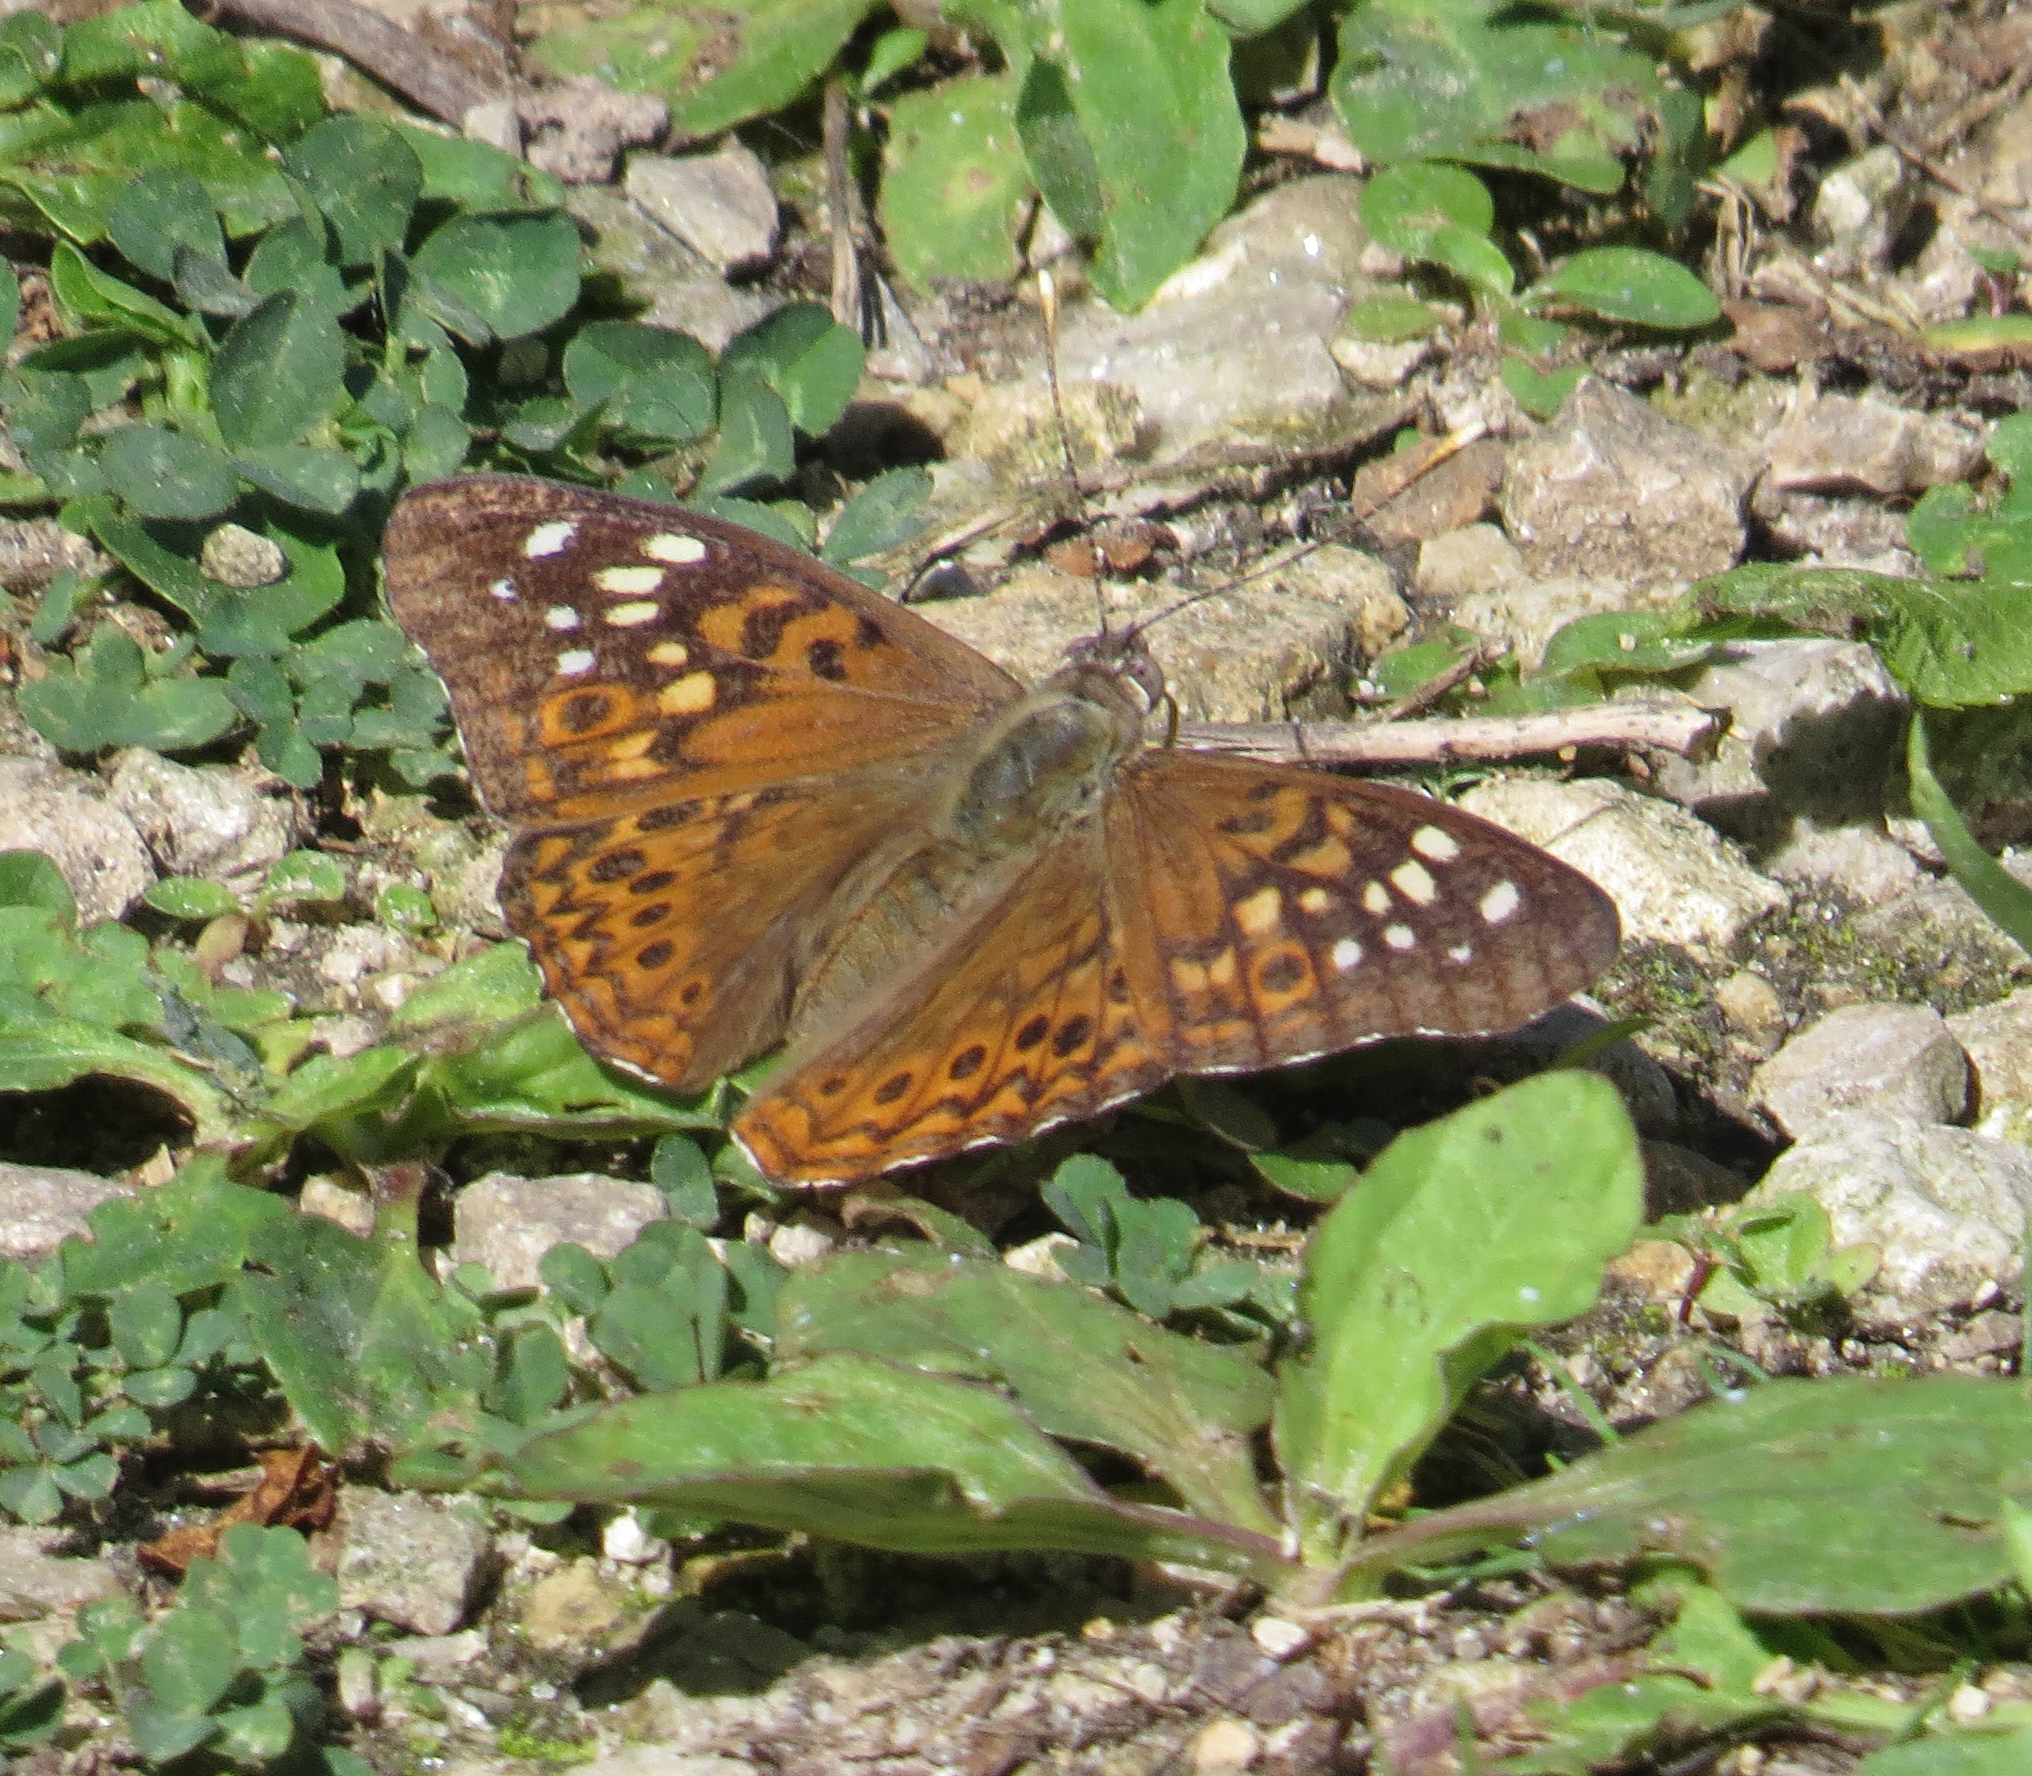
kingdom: Animalia
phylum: Arthropoda
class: Insecta
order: Lepidoptera
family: Nymphalidae
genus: Asterocampa
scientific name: Asterocampa celtis
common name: Hackberry emperor
